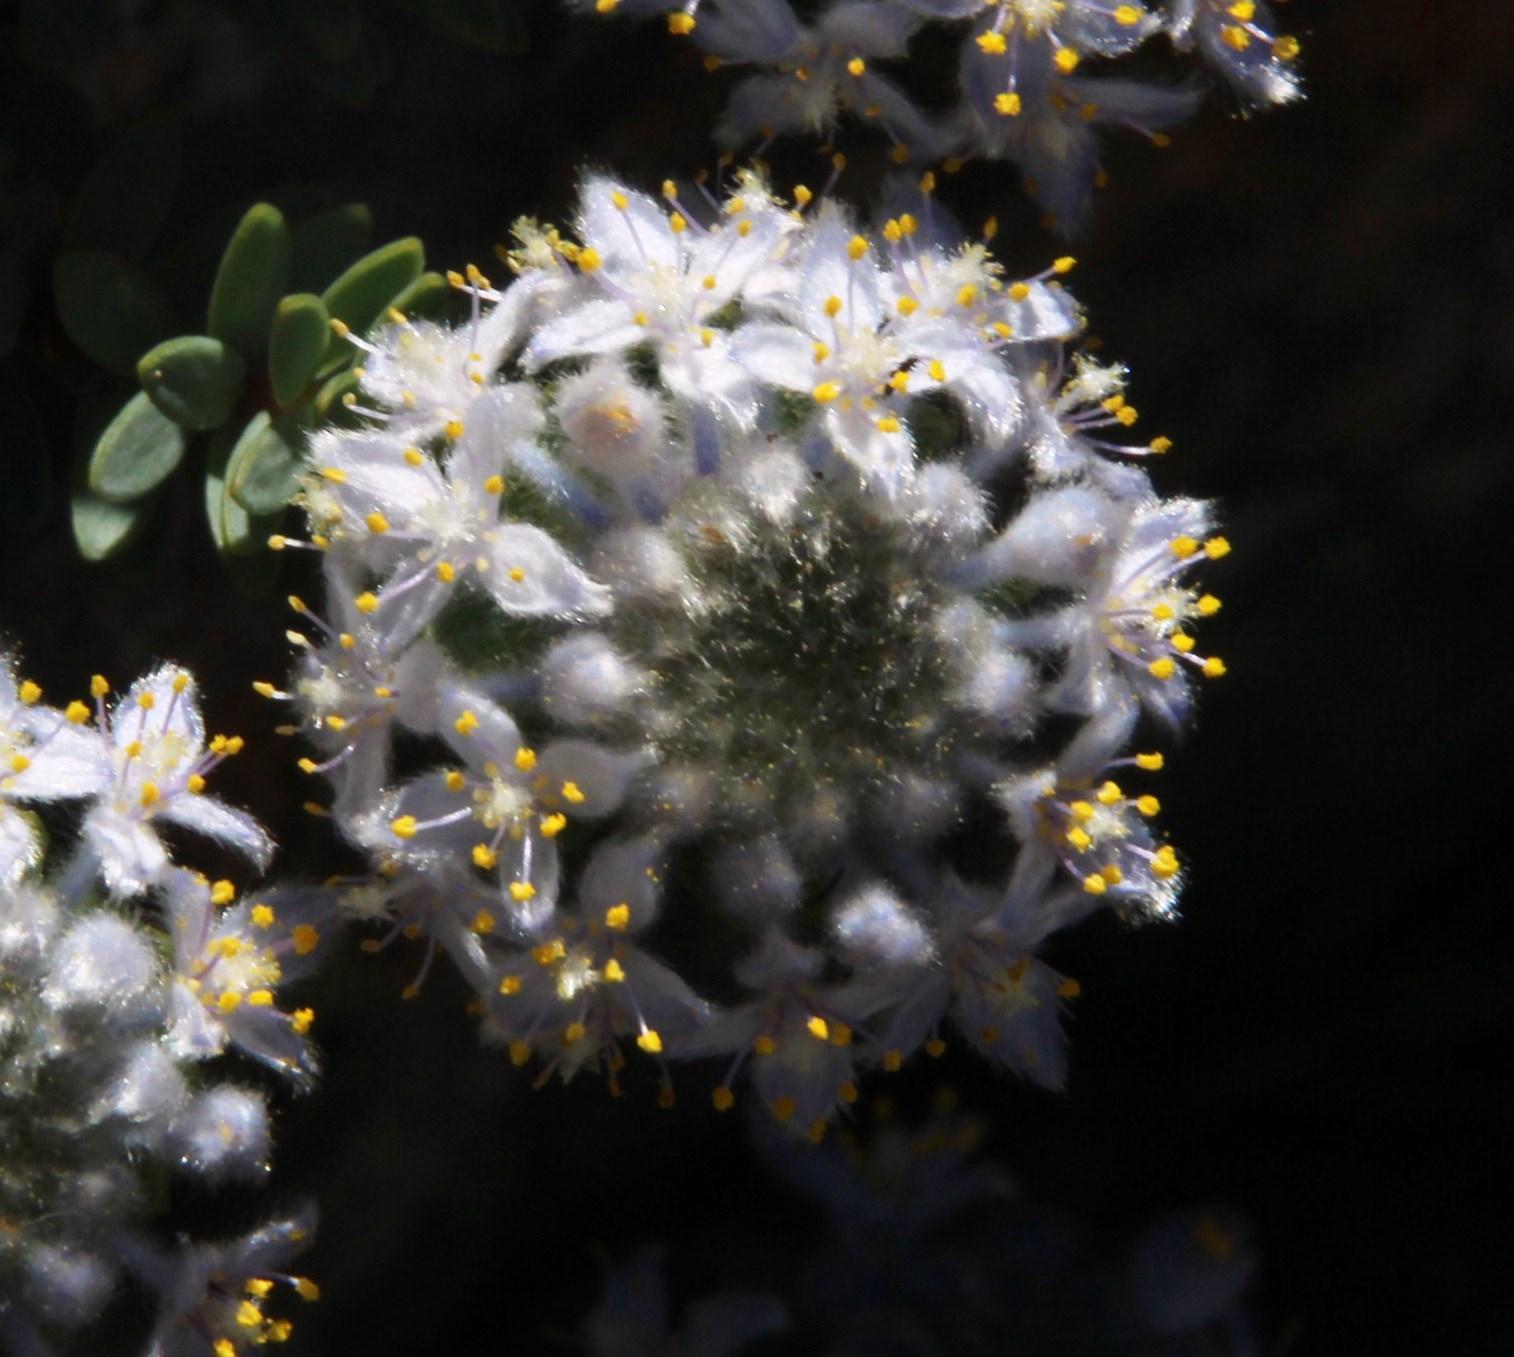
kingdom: Plantae
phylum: Tracheophyta
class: Magnoliopsida
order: Malvales
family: Thymelaeaceae
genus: Lachnaea
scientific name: Lachnaea pomposa
